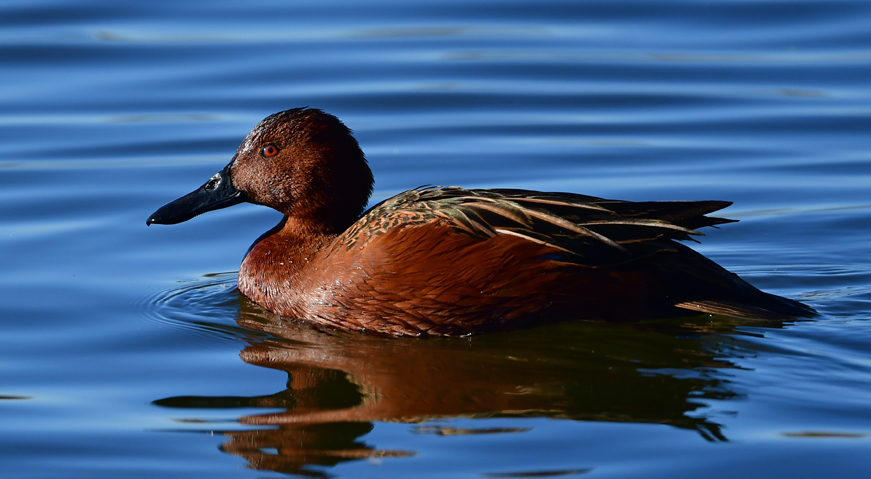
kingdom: Animalia
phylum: Chordata
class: Aves
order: Anseriformes
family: Anatidae
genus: Spatula
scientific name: Spatula cyanoptera
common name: Cinnamon teal
